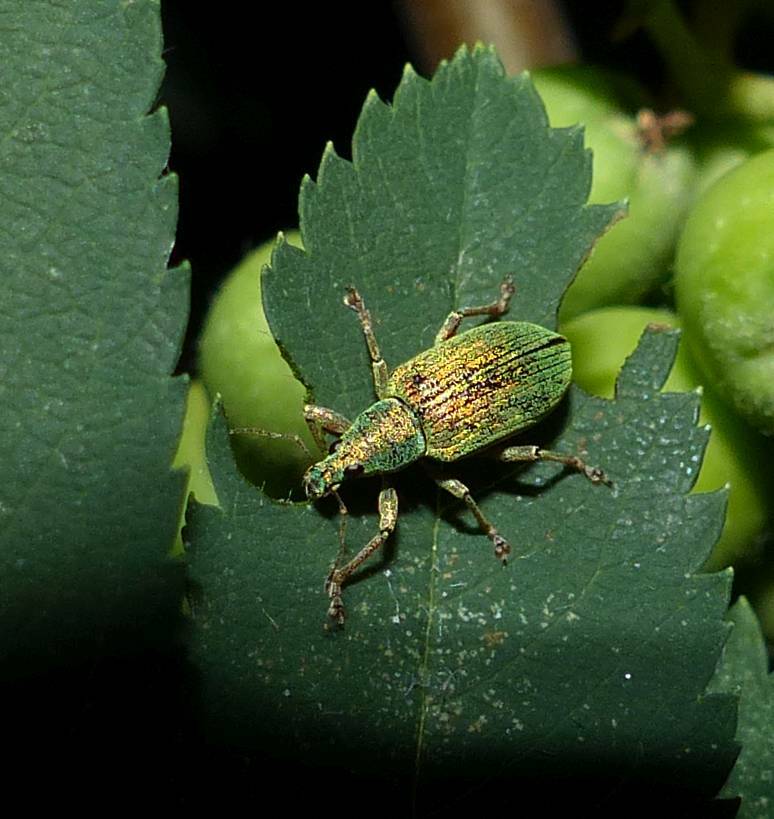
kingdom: Animalia
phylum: Arthropoda
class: Insecta
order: Coleoptera
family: Curculionidae
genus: Polydrusus
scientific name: Polydrusus formosus
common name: Weevil
